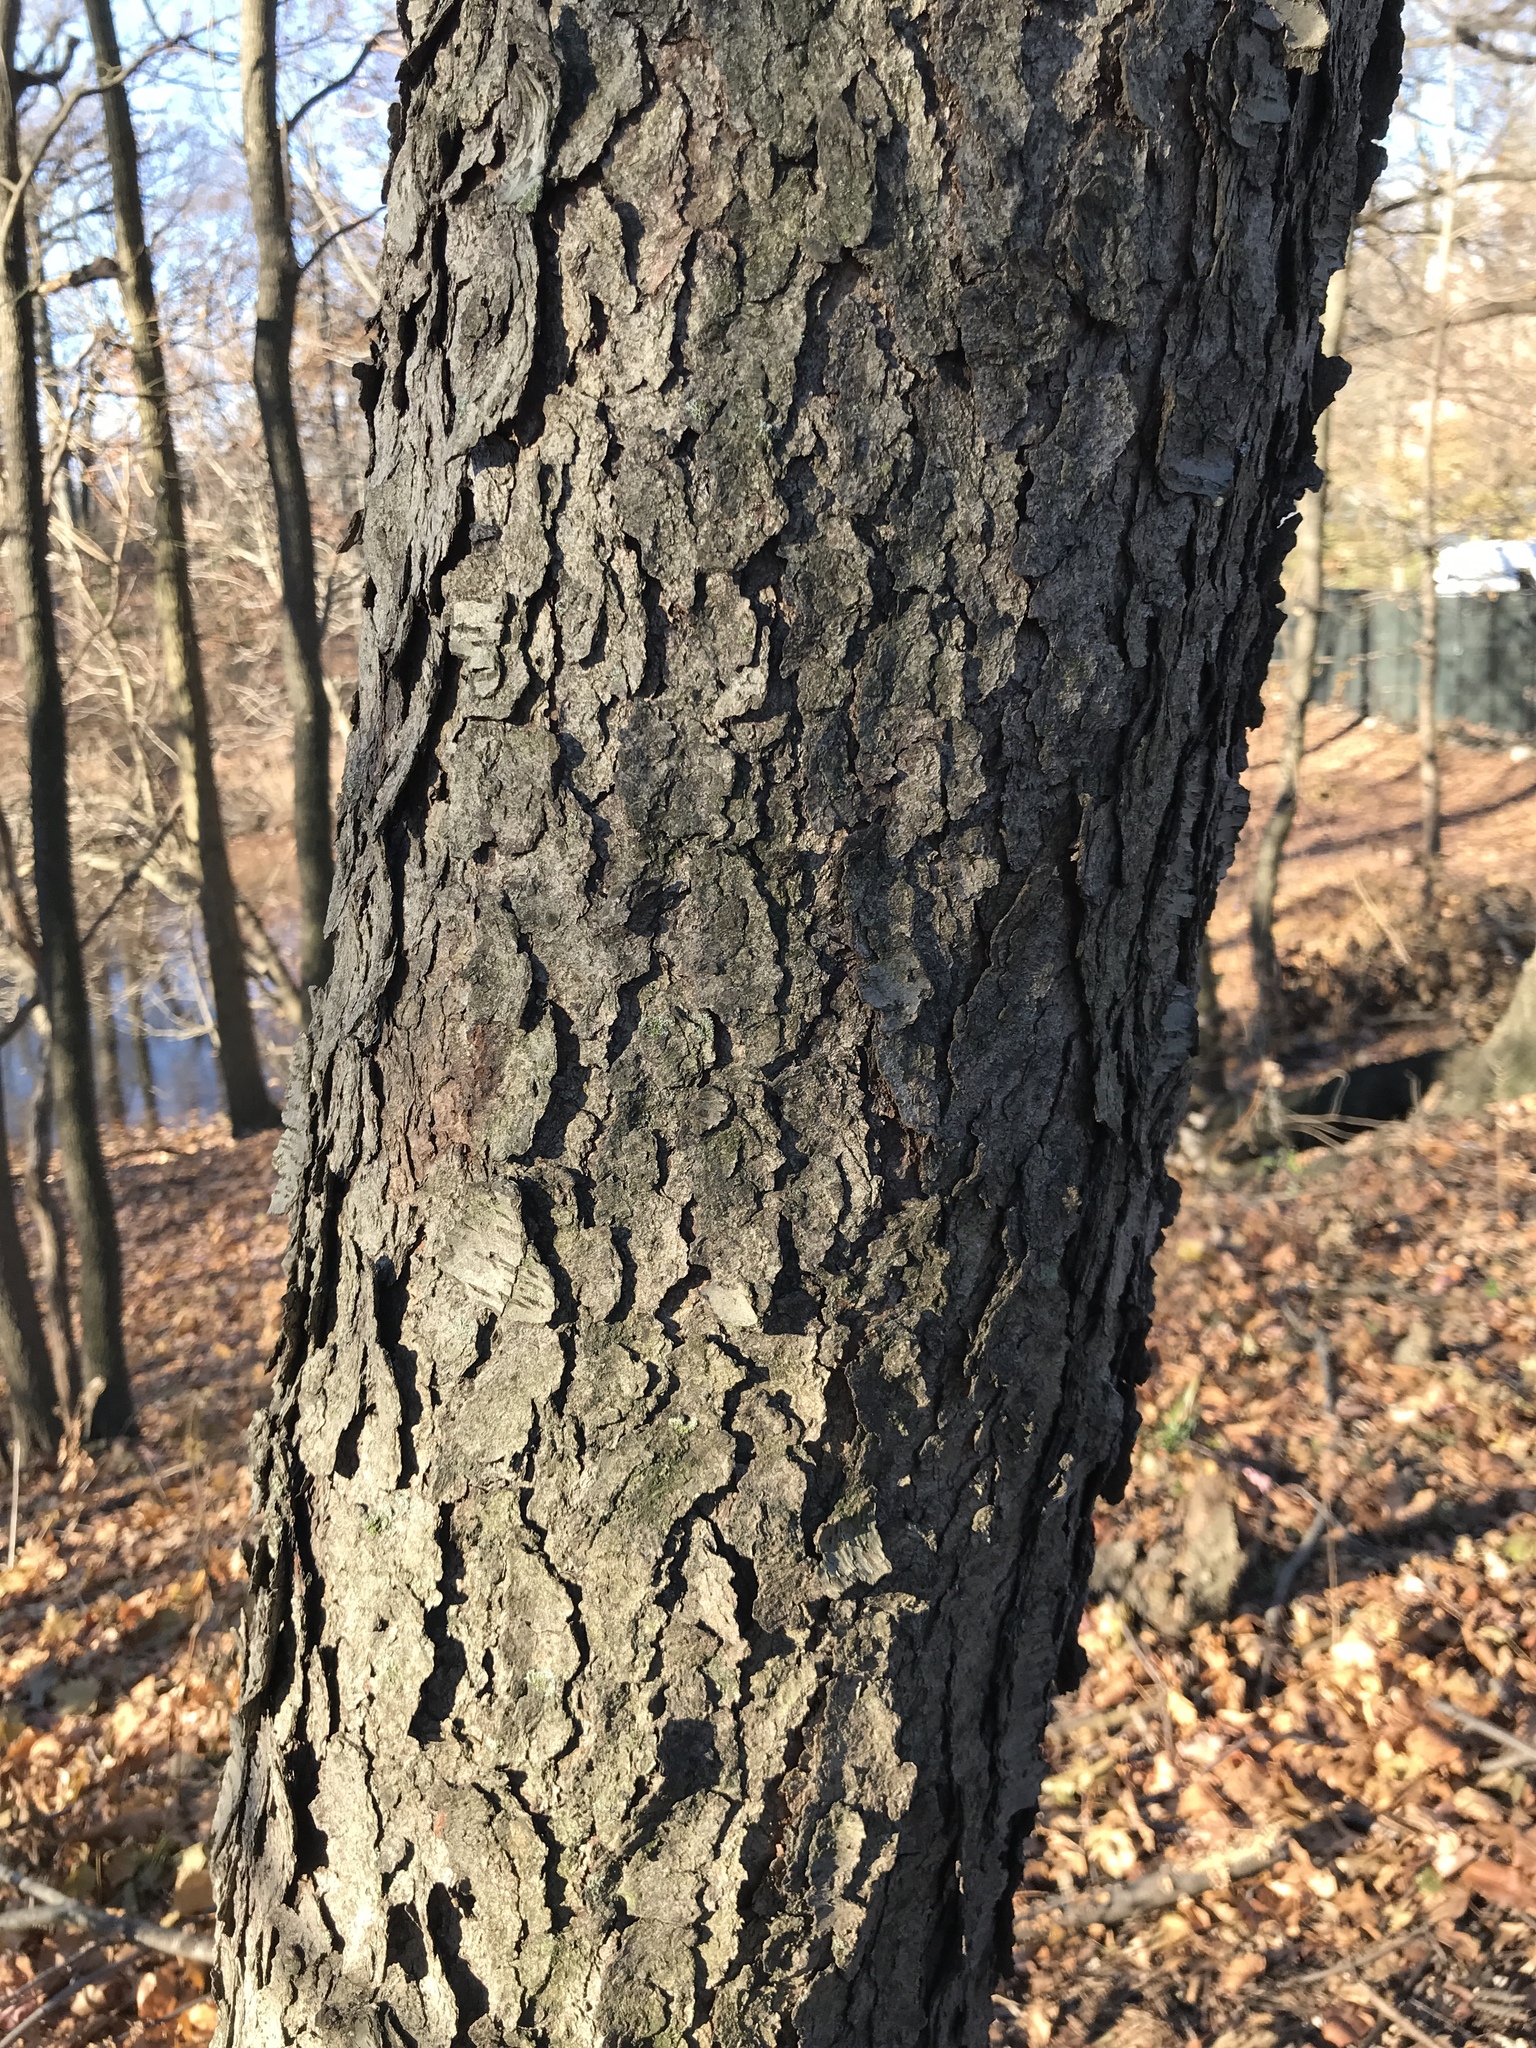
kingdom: Plantae
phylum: Tracheophyta
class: Magnoliopsida
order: Rosales
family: Rosaceae
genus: Prunus
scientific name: Prunus serotina
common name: Black cherry
